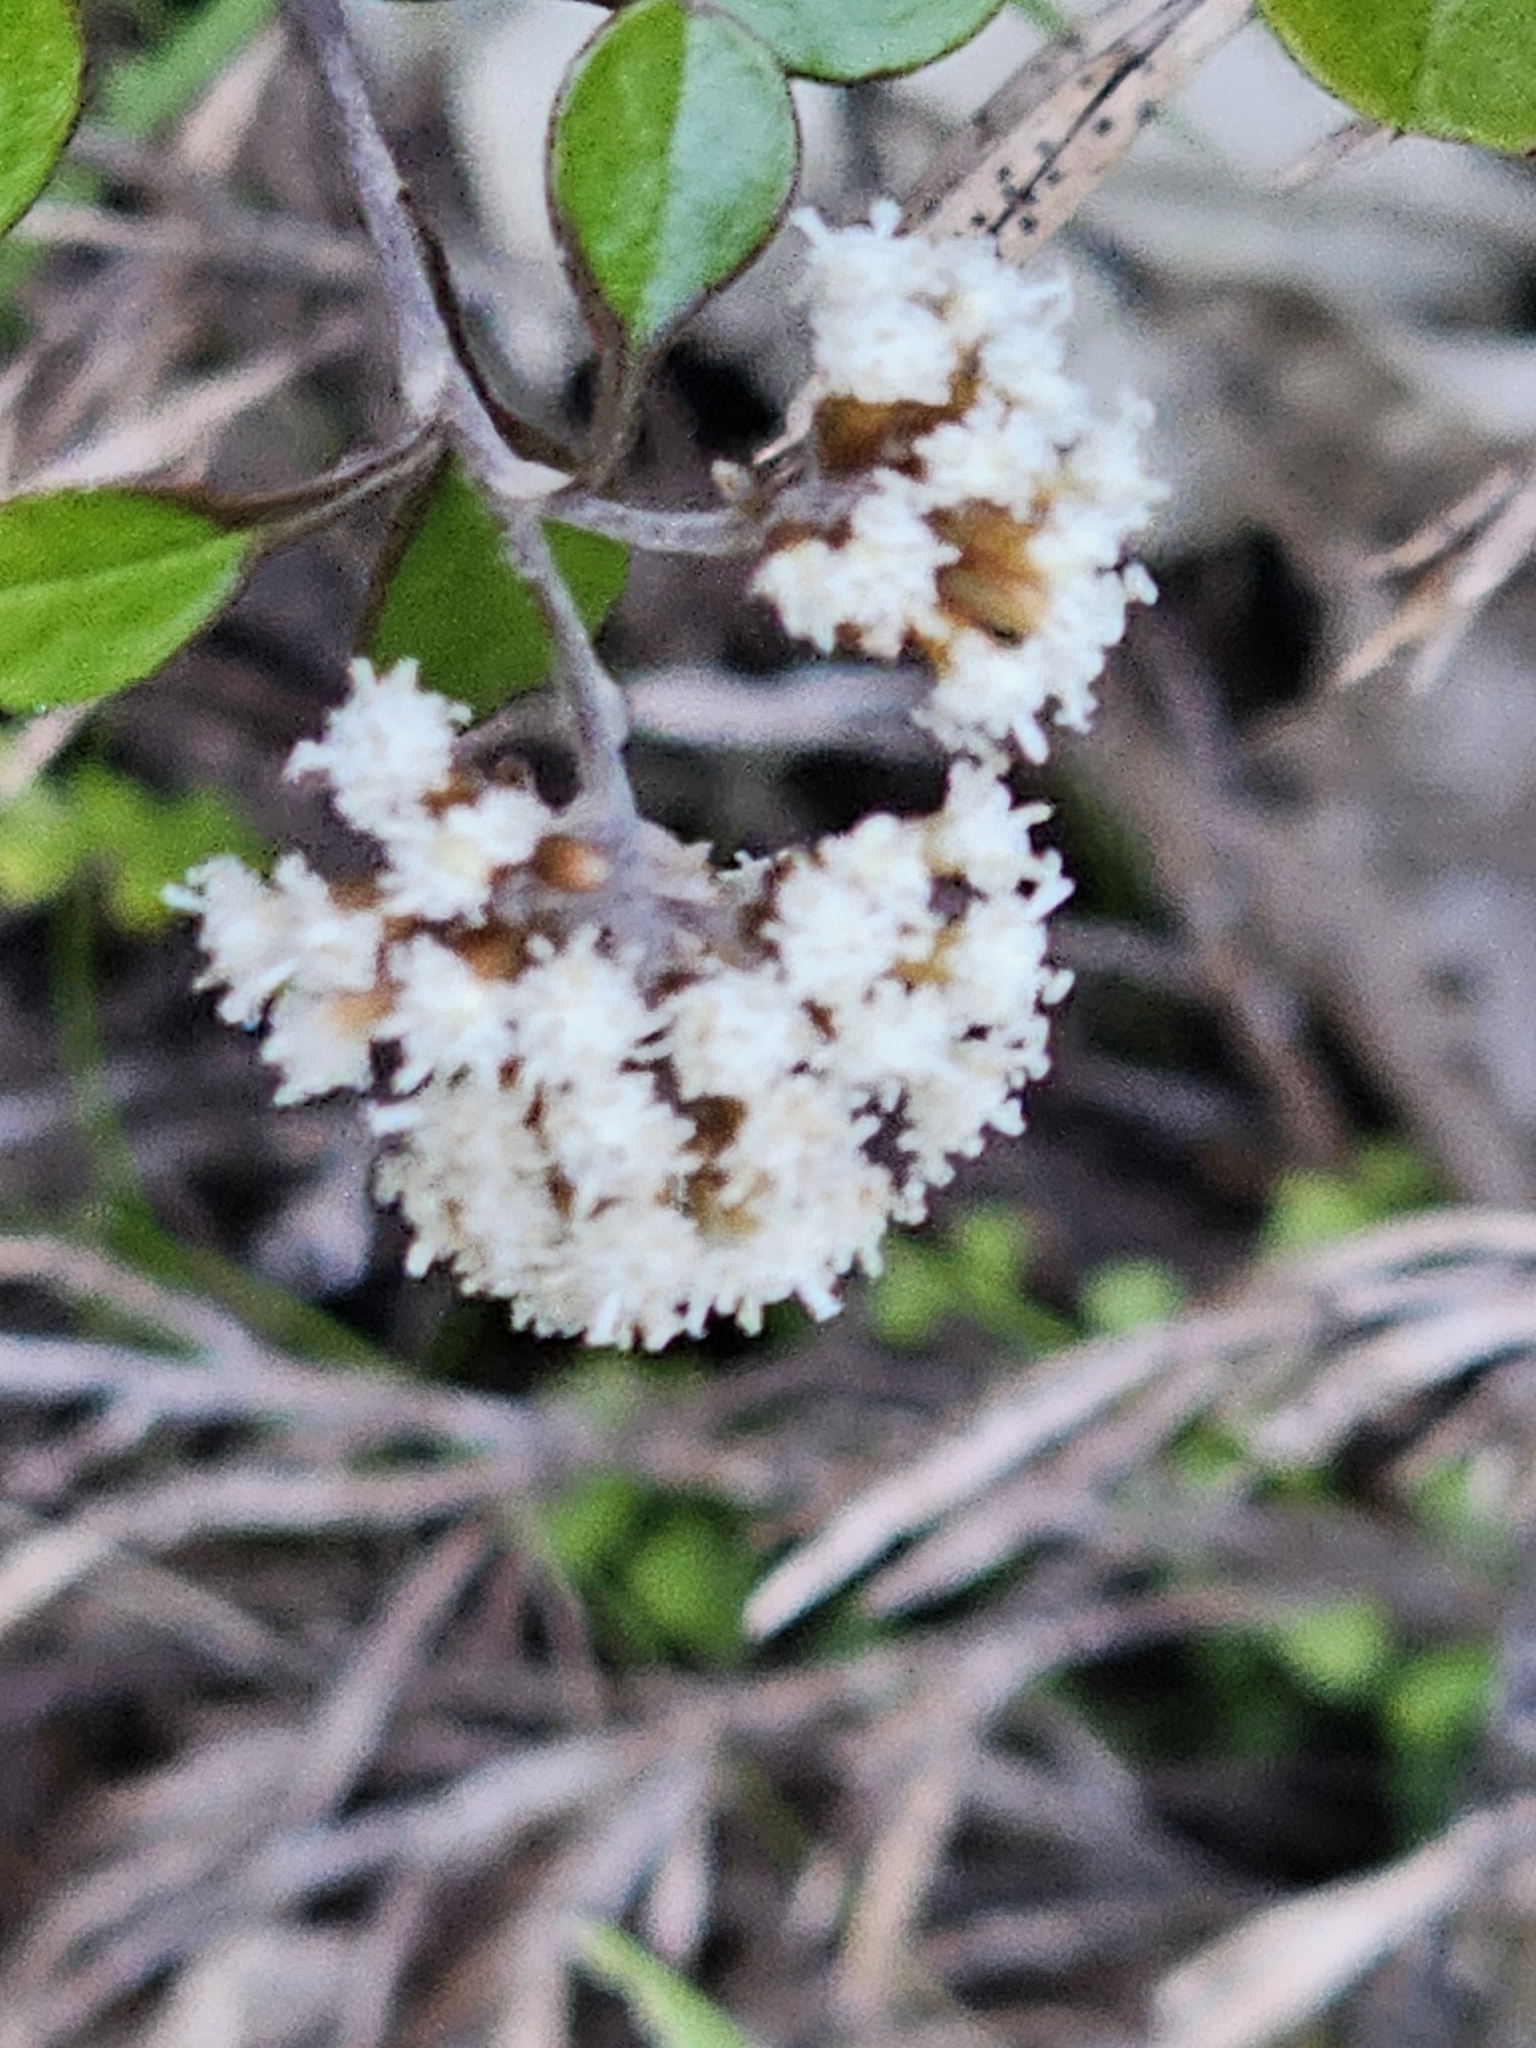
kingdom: Plantae
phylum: Tracheophyta
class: Magnoliopsida
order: Asterales
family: Asteraceae
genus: Ozothamnus
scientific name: Ozothamnus glomeratus
